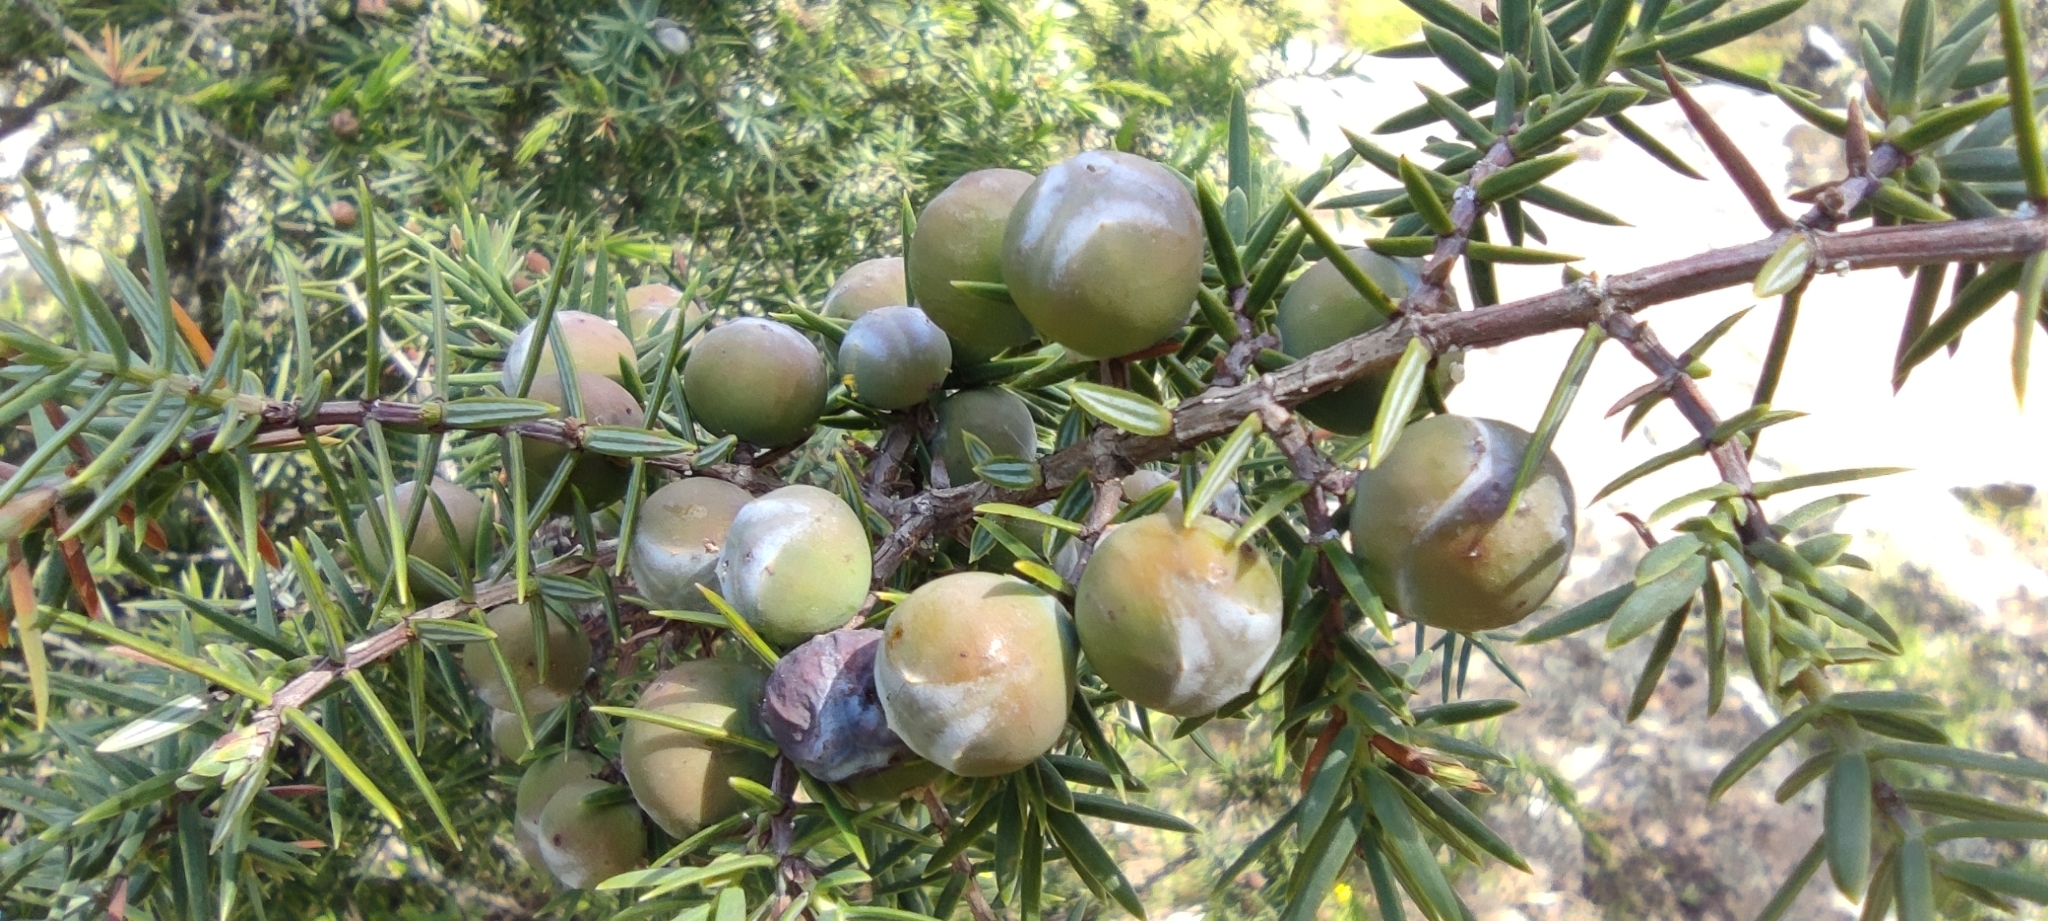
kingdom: Plantae
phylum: Tracheophyta
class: Pinopsida
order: Pinales
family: Cupressaceae
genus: Juniperus
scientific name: Juniperus oxycedrus
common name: Prickly juniper
